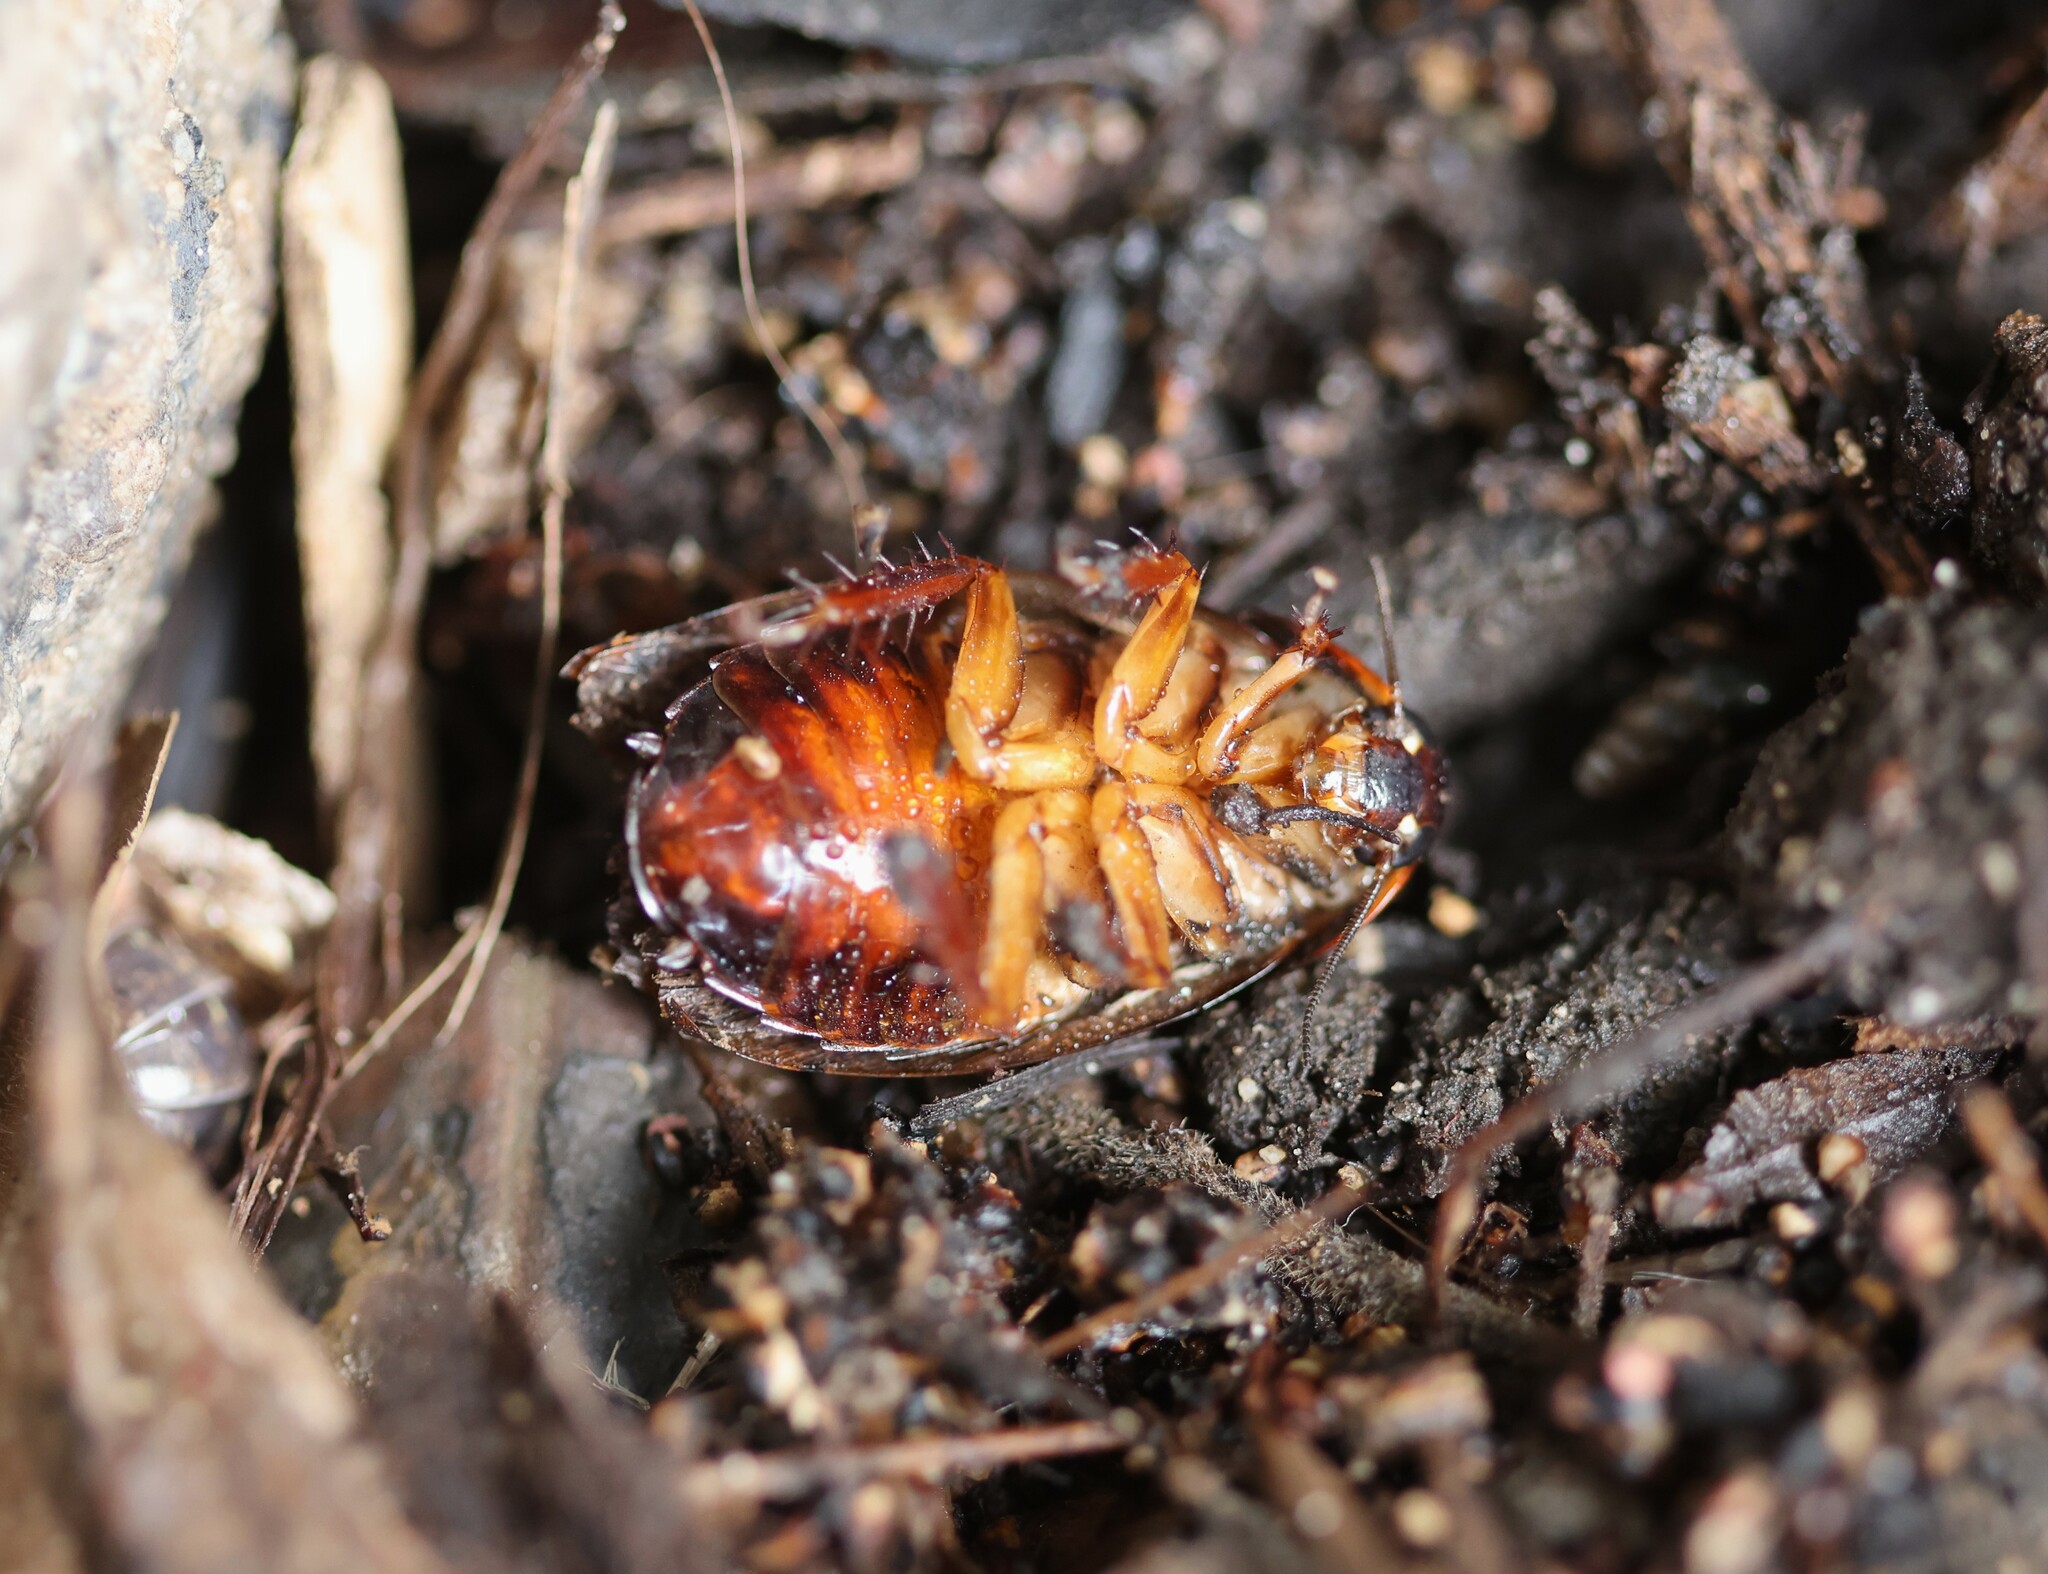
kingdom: Animalia
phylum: Arthropoda
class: Insecta
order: Blattodea
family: Blaberidae
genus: Pycnoscelus
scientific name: Pycnoscelus surinamensis
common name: Surinam cockroach
